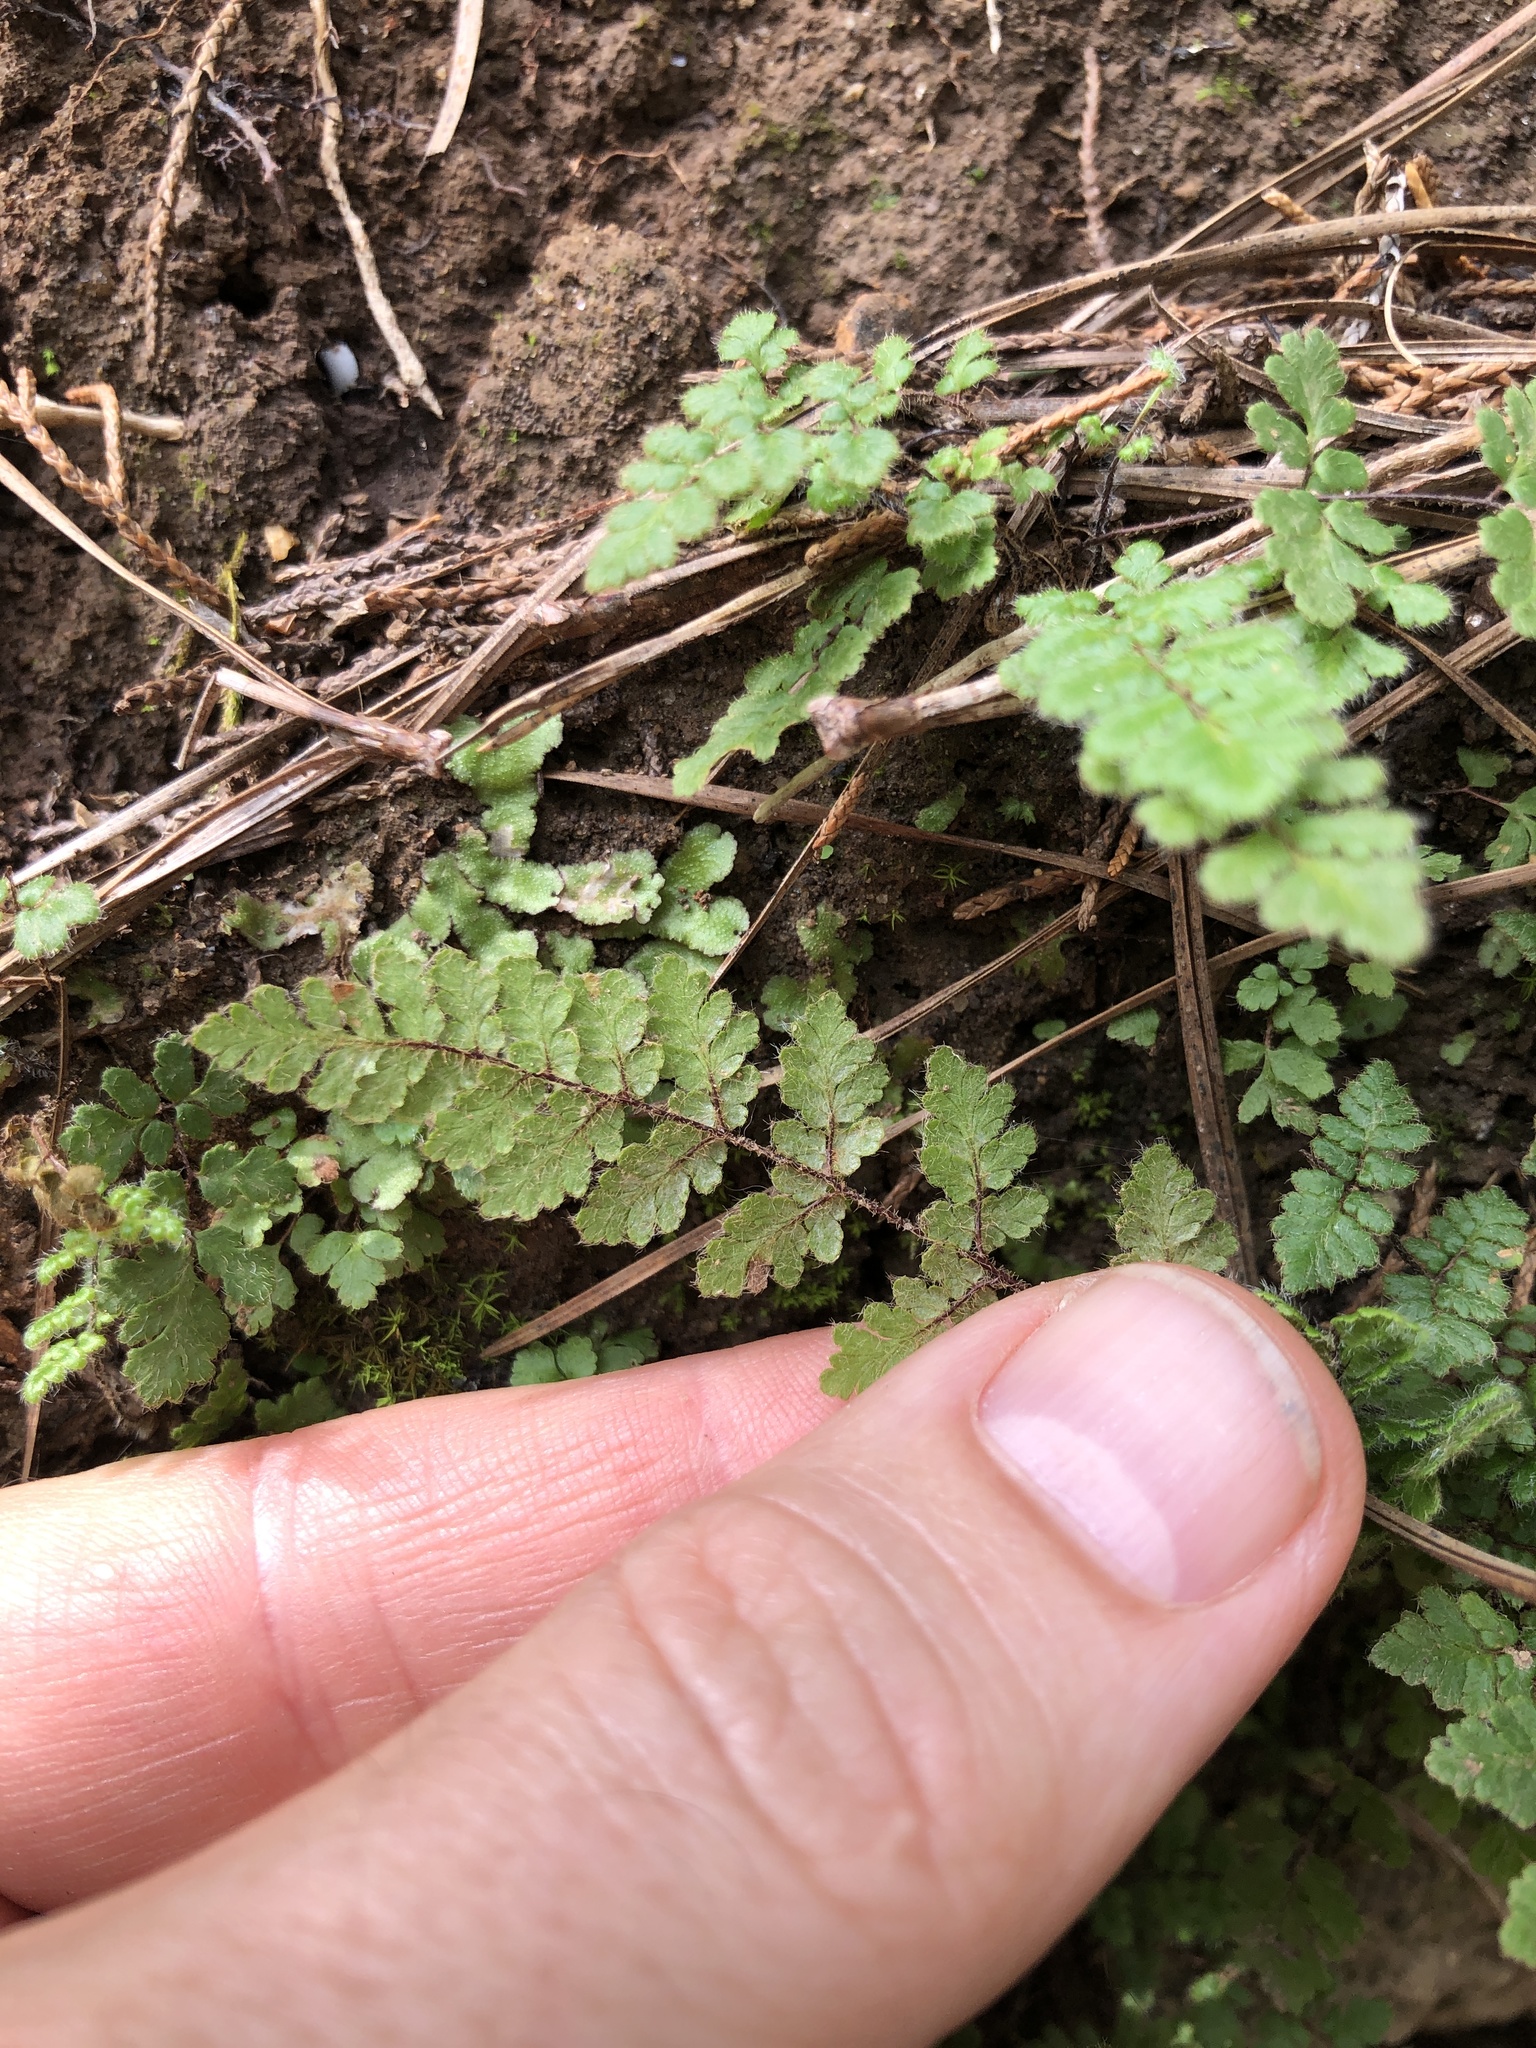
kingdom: Plantae
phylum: Tracheophyta
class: Polypodiopsida
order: Polypodiales
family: Pteridaceae
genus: Myriopteris
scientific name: Myriopteris lanosa
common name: Hairy lip fern
